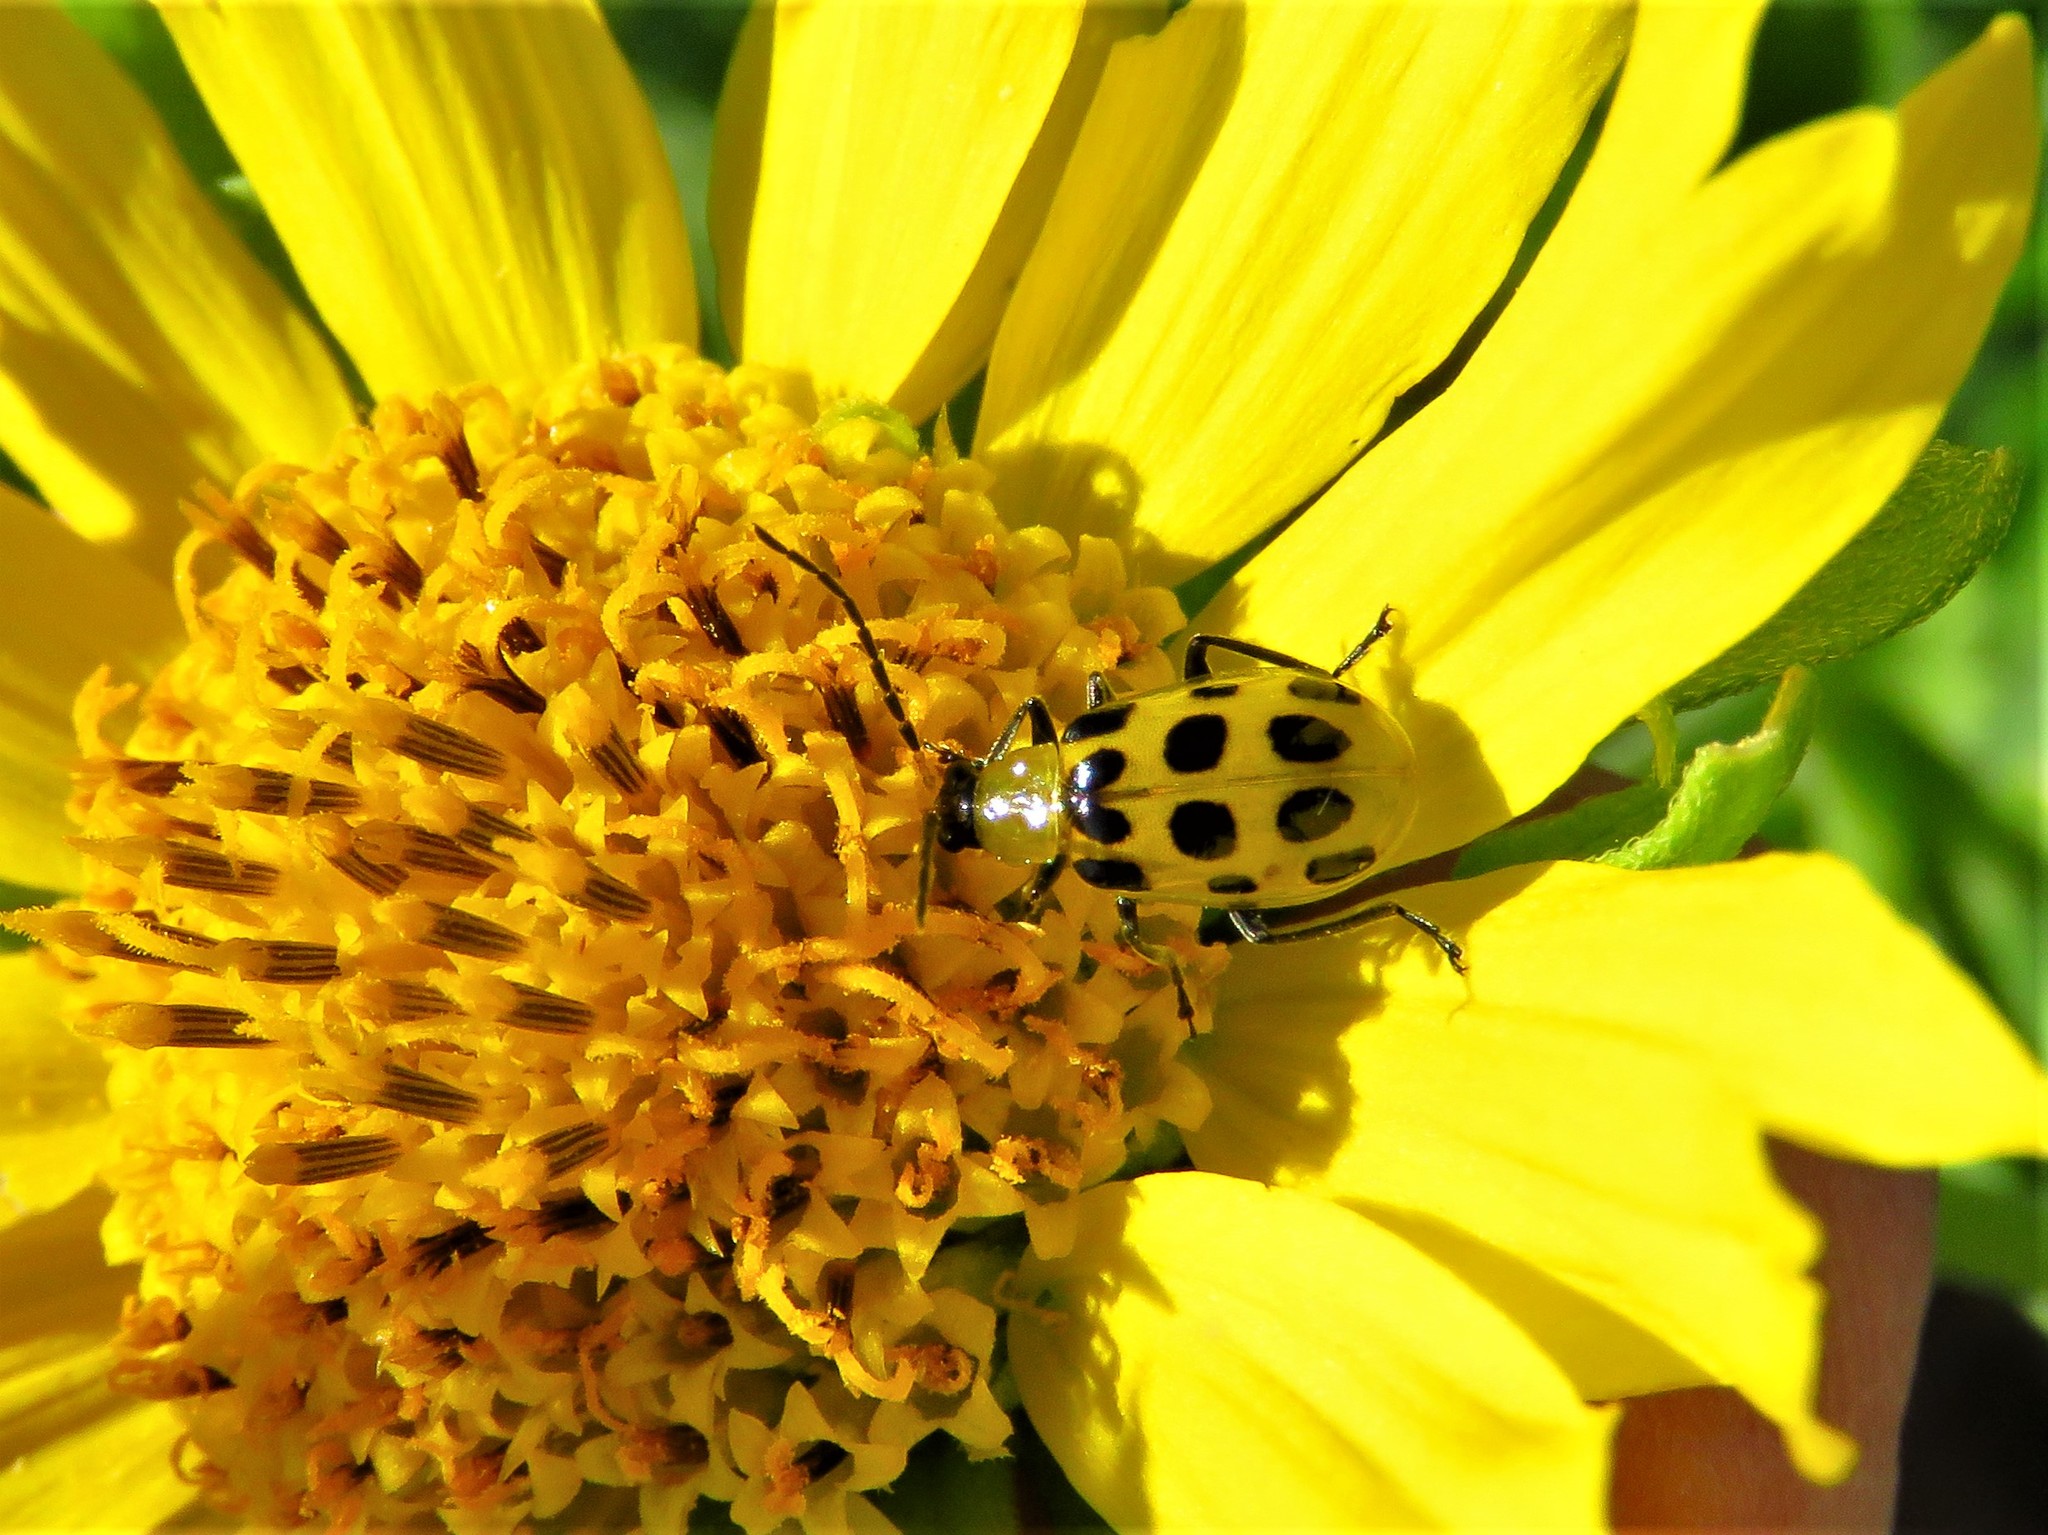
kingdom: Animalia
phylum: Arthropoda
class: Insecta
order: Coleoptera
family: Chrysomelidae
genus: Diabrotica
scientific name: Diabrotica undecimpunctata
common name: Spotted cucumber beetle
